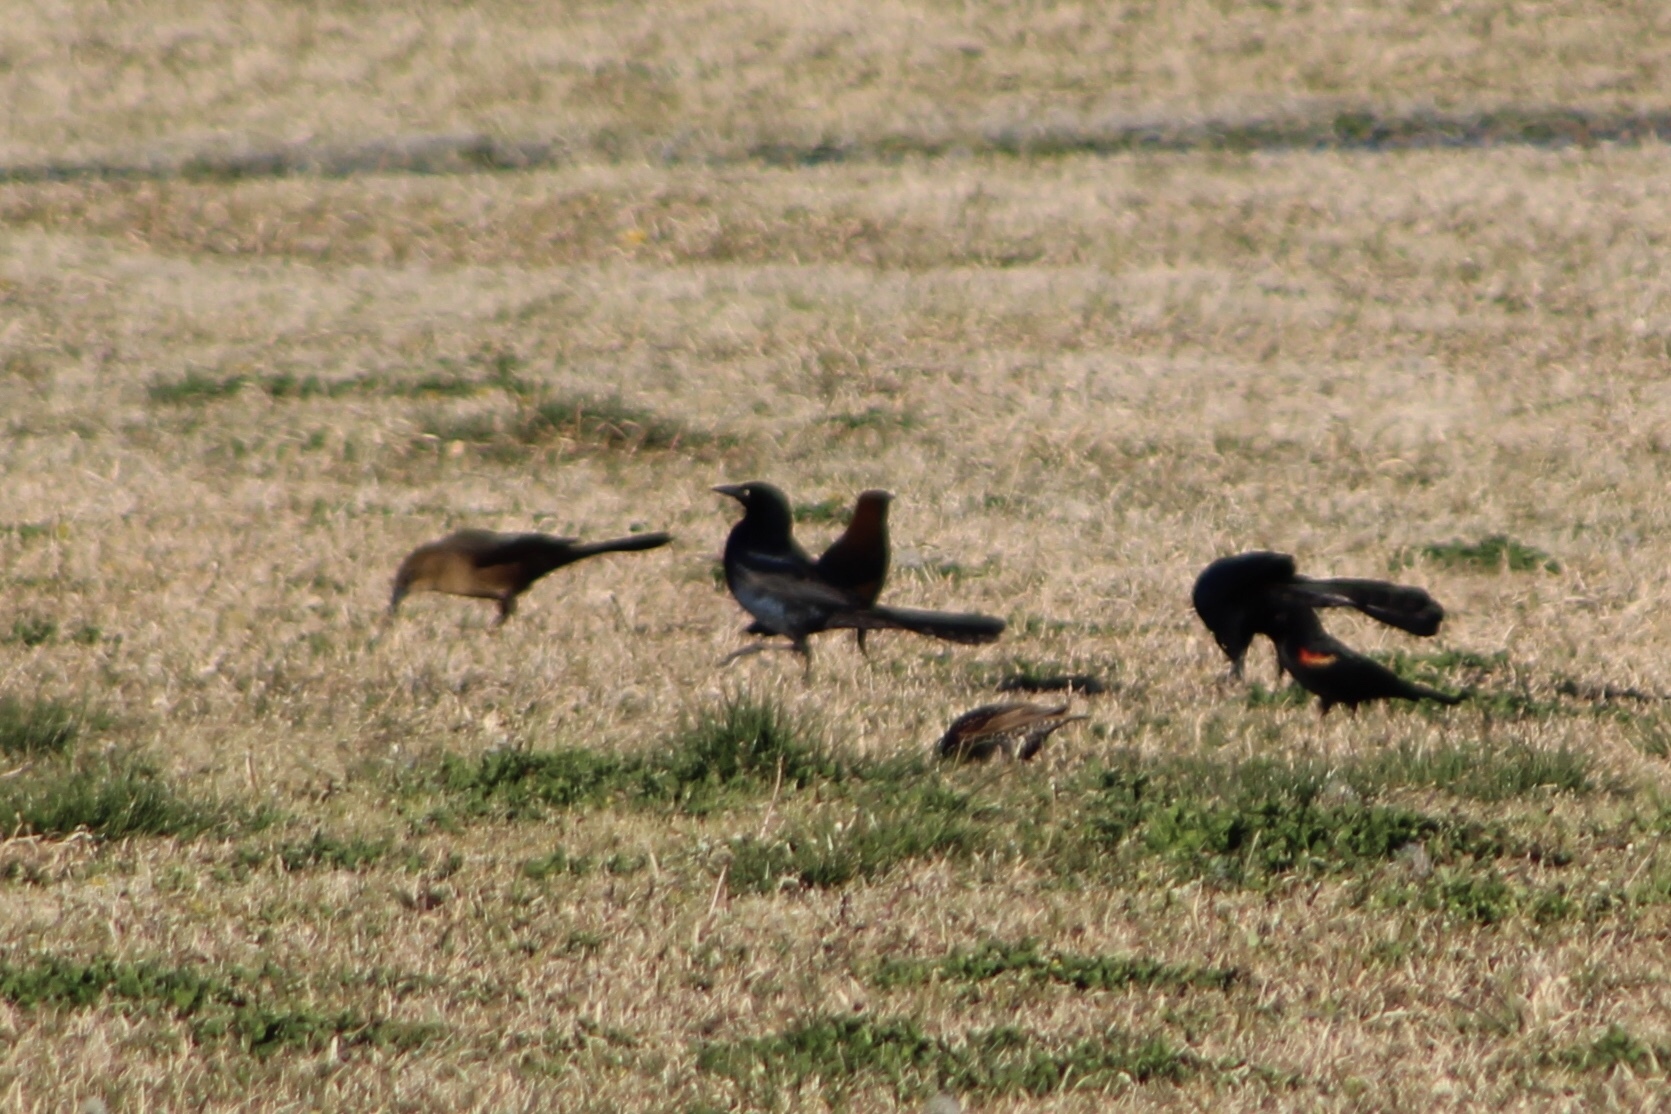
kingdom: Animalia
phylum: Chordata
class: Aves
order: Passeriformes
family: Icteridae
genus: Quiscalus
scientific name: Quiscalus mexicanus
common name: Great-tailed grackle
